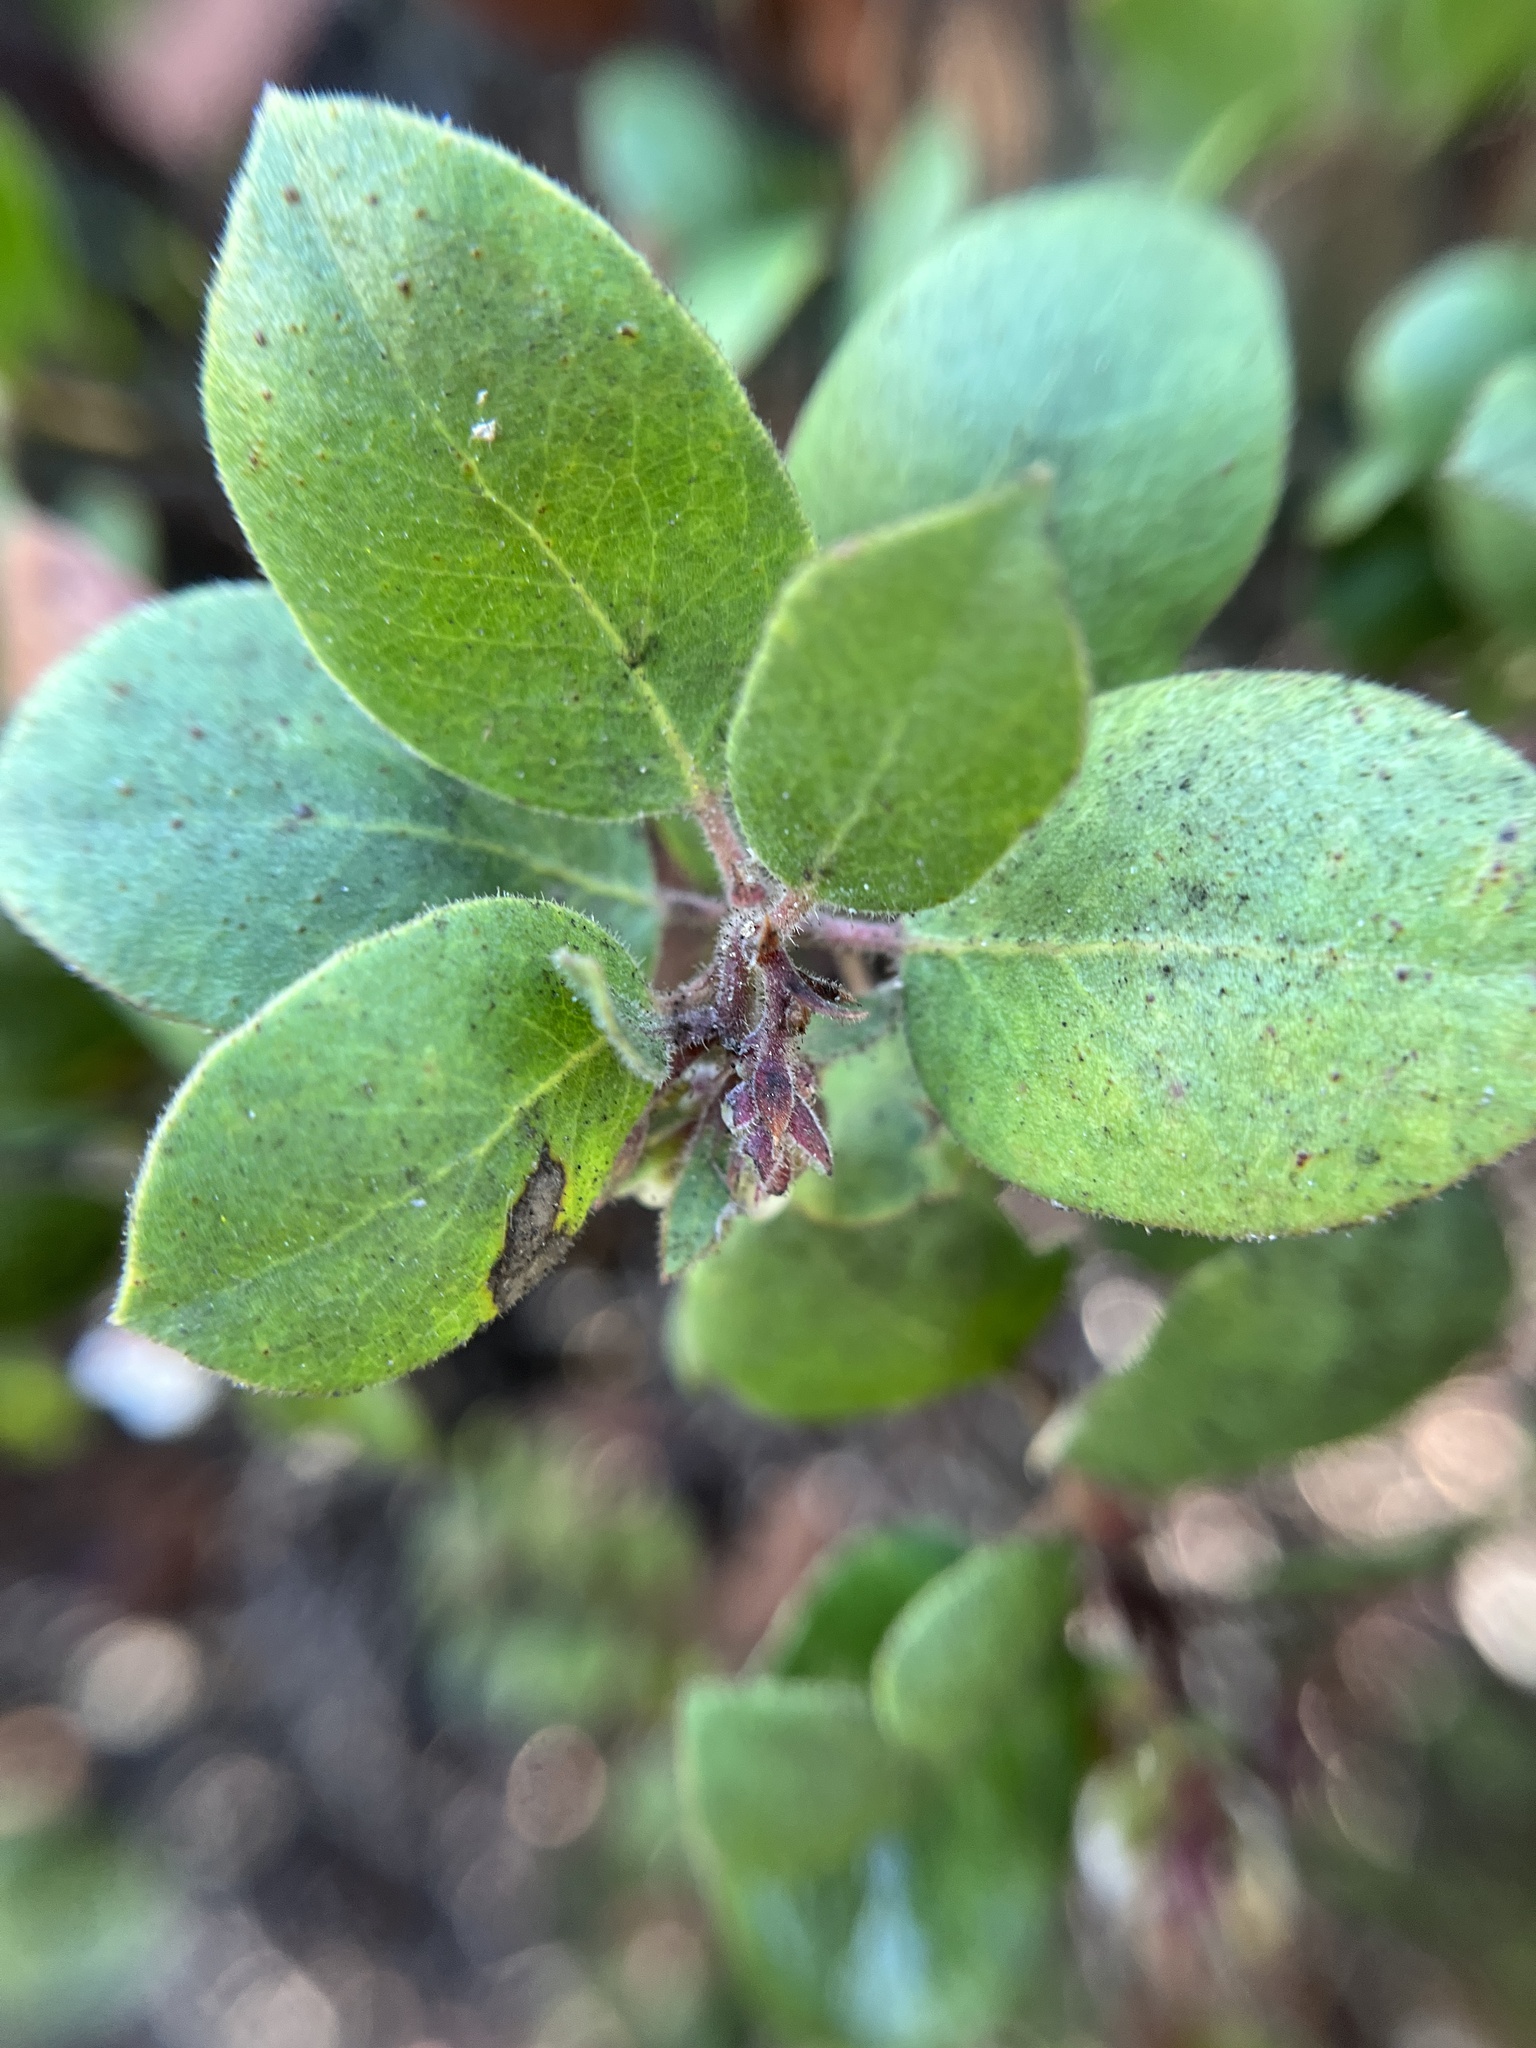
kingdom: Plantae
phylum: Tracheophyta
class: Magnoliopsida
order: Ericales
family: Ericaceae
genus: Arctostaphylos
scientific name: Arctostaphylos montereyensis
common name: Monterey manzanita
